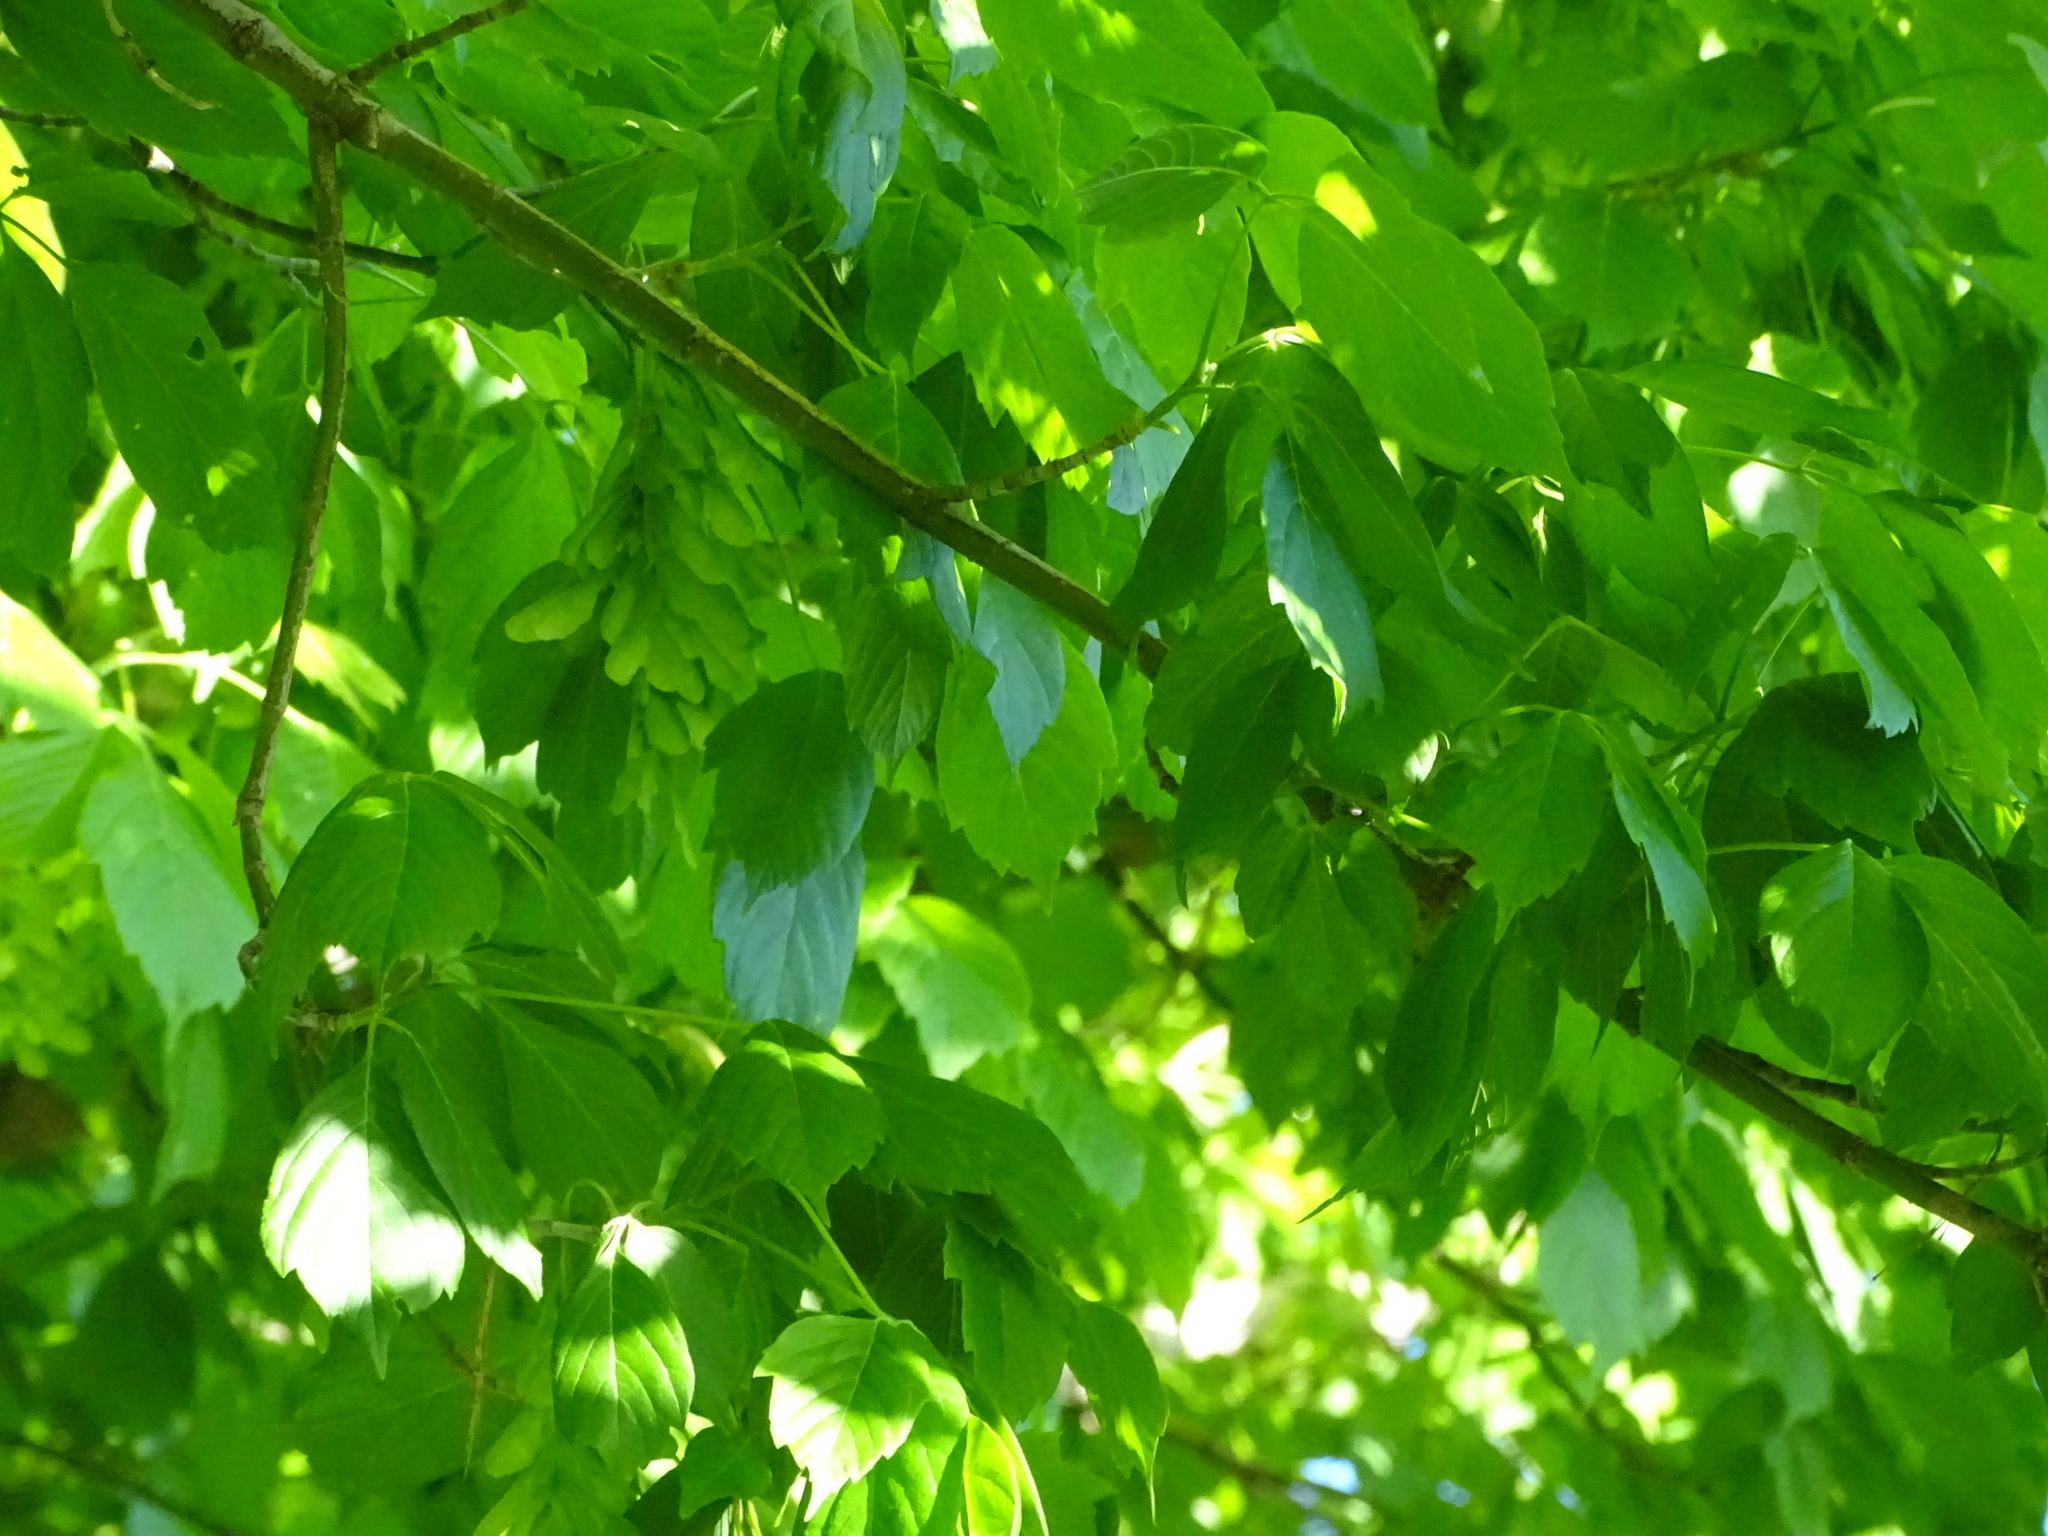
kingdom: Plantae
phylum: Tracheophyta
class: Magnoliopsida
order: Sapindales
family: Sapindaceae
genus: Acer
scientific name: Acer negundo
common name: Ashleaf maple
